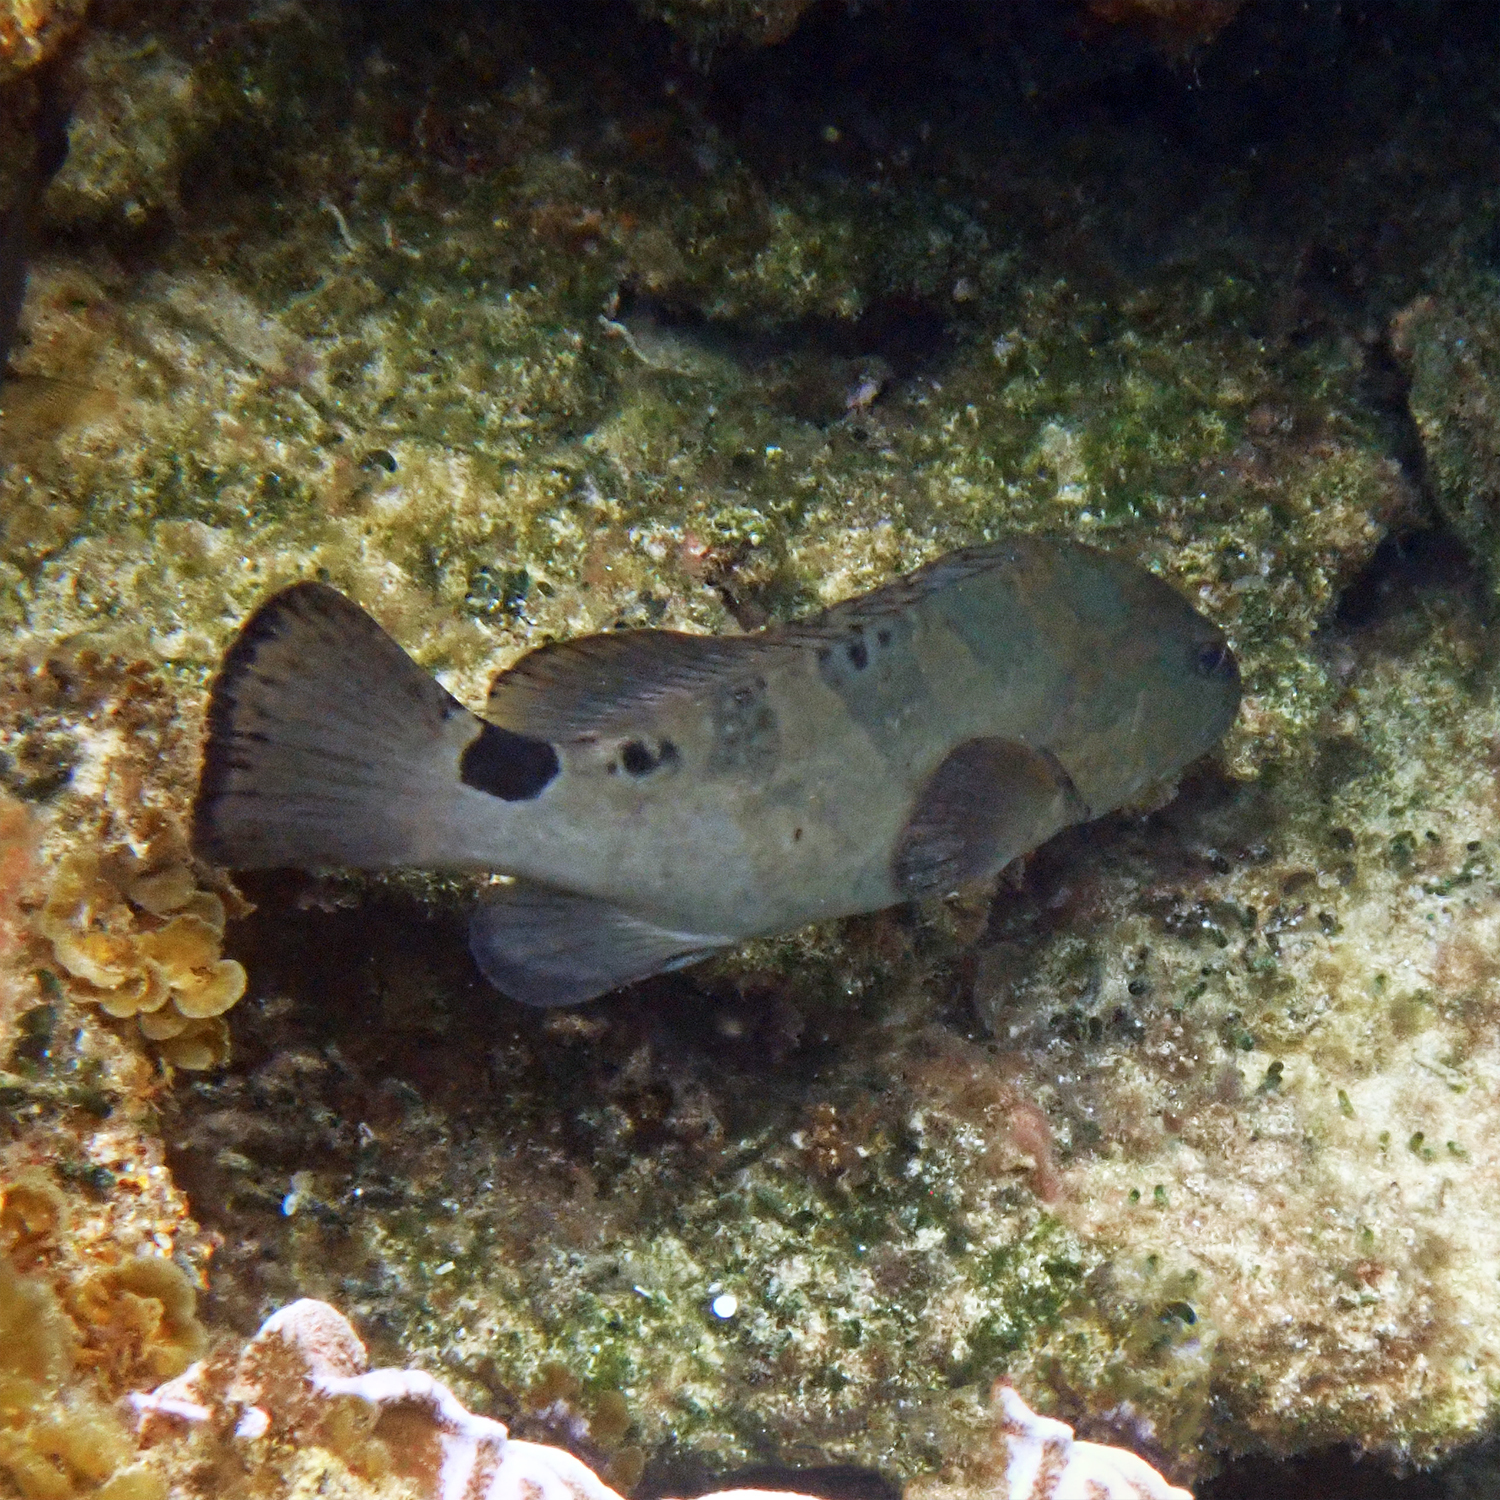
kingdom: Animalia
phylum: Chordata
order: Perciformes
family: Serranidae
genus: Epinephelus
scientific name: Epinephelus daemelii
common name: Saddletail grouper
